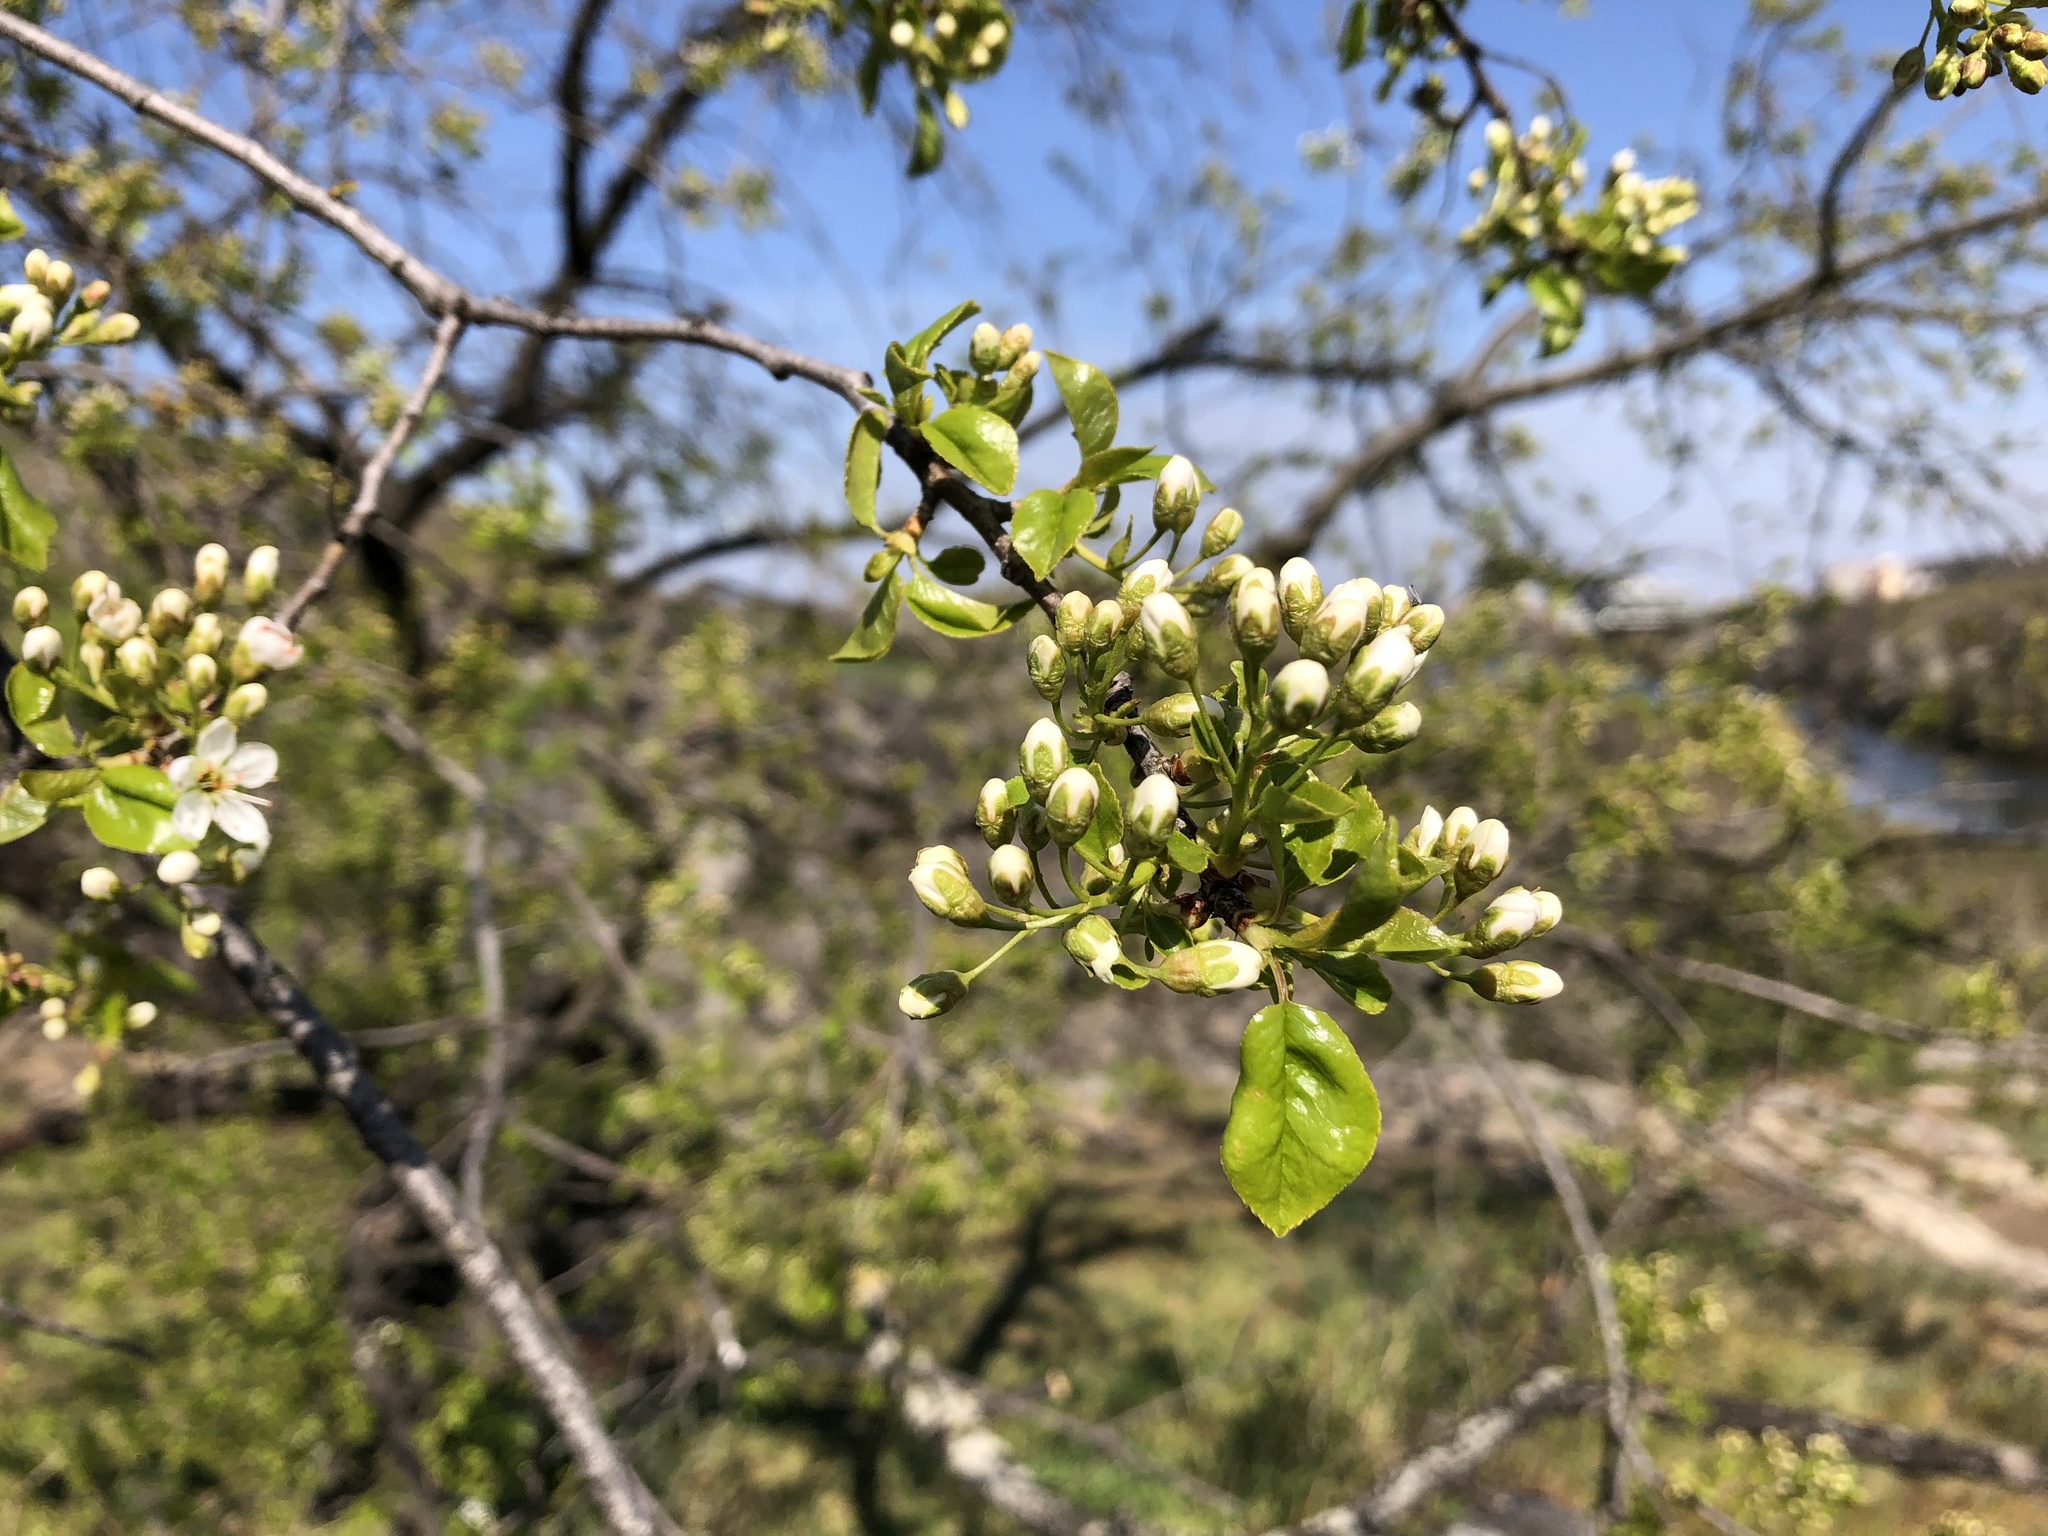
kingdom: Plantae
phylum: Tracheophyta
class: Magnoliopsida
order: Rosales
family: Rosaceae
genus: Prunus
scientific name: Prunus mahaleb
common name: Mahaleb cherry
